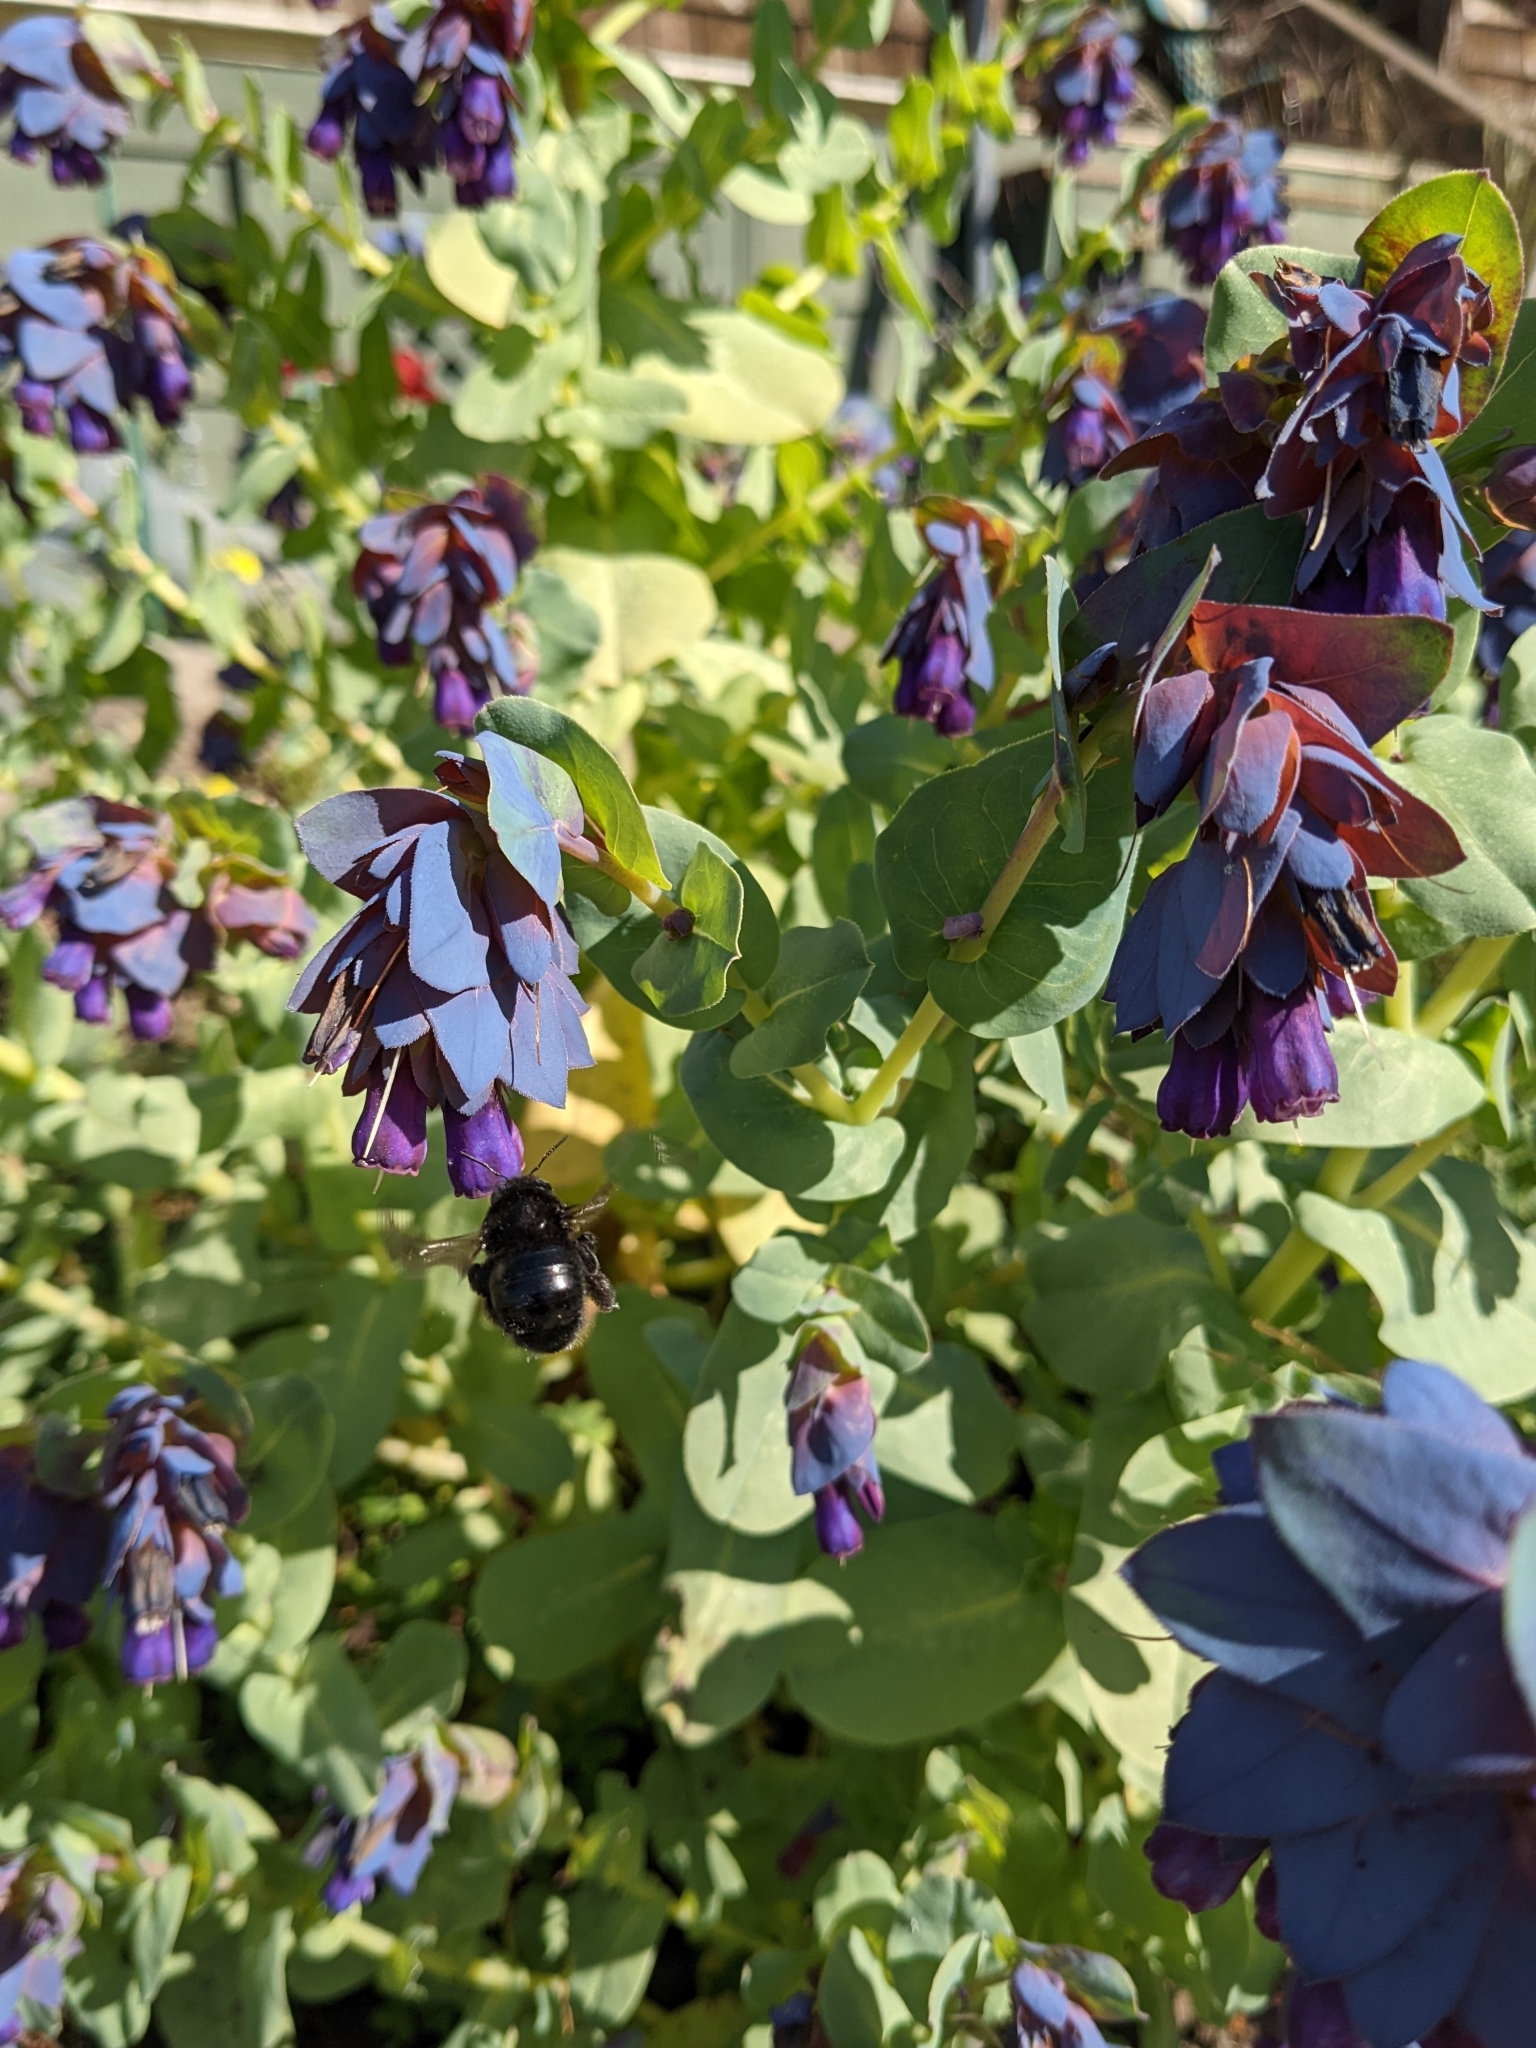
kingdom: Animalia
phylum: Arthropoda
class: Insecta
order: Hymenoptera
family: Apidae
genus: Xylocopa
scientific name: Xylocopa tabaniformis
